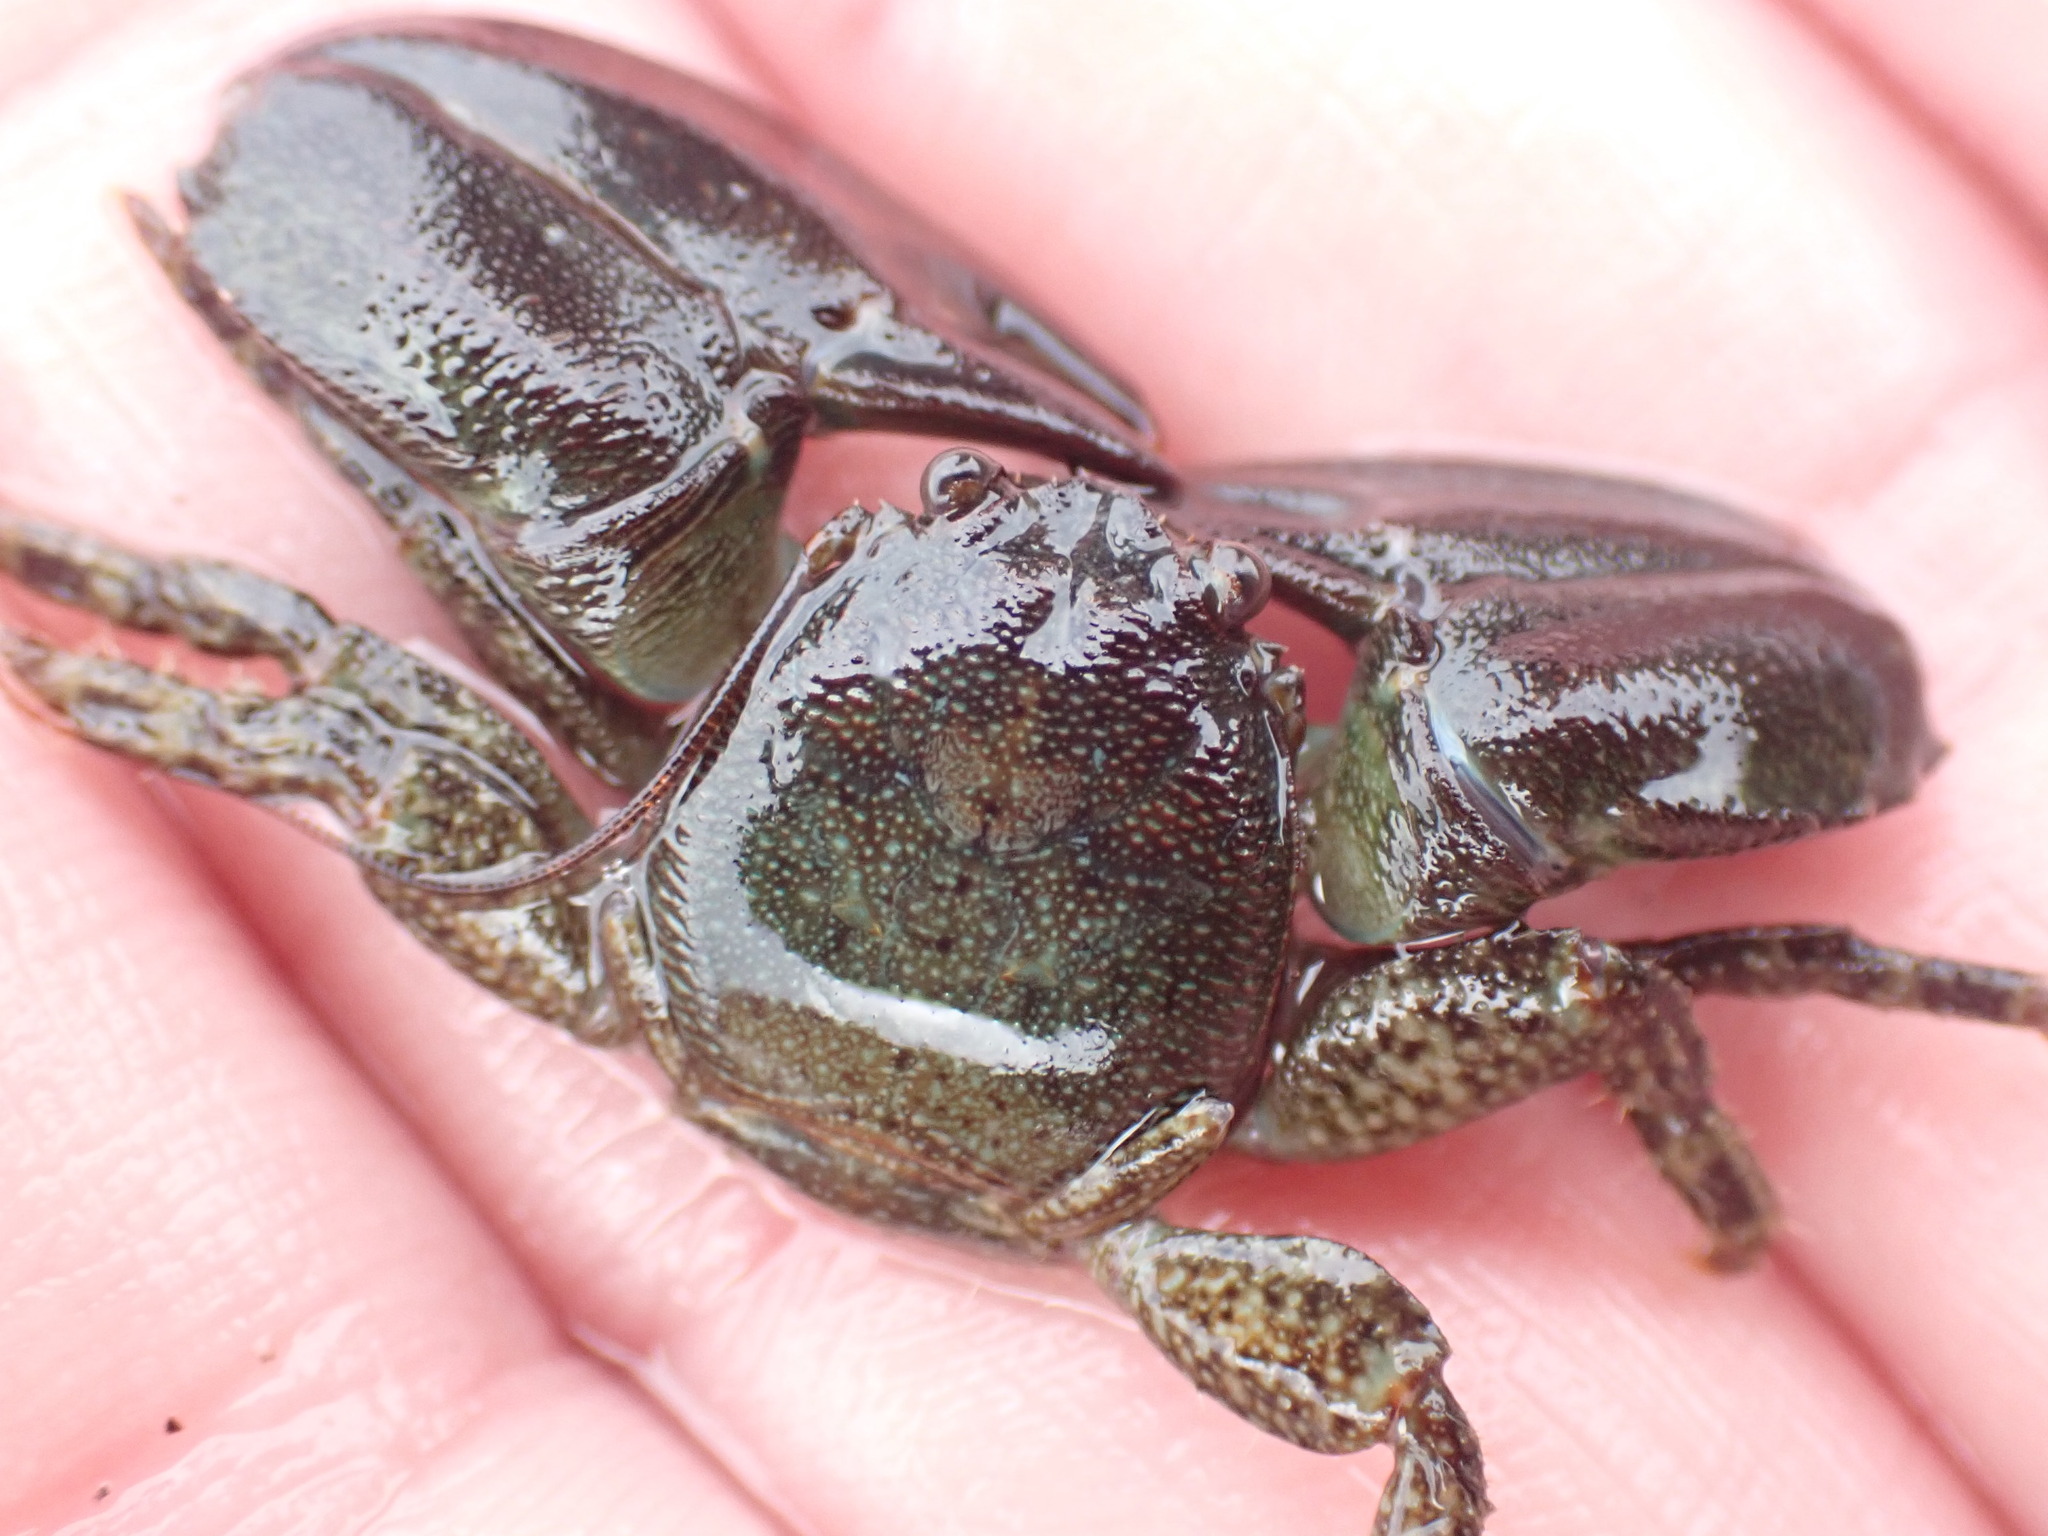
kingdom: Animalia
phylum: Arthropoda
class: Malacostraca
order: Decapoda
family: Porcellanidae
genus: Petrolisthes
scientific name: Petrolisthes elongatus
